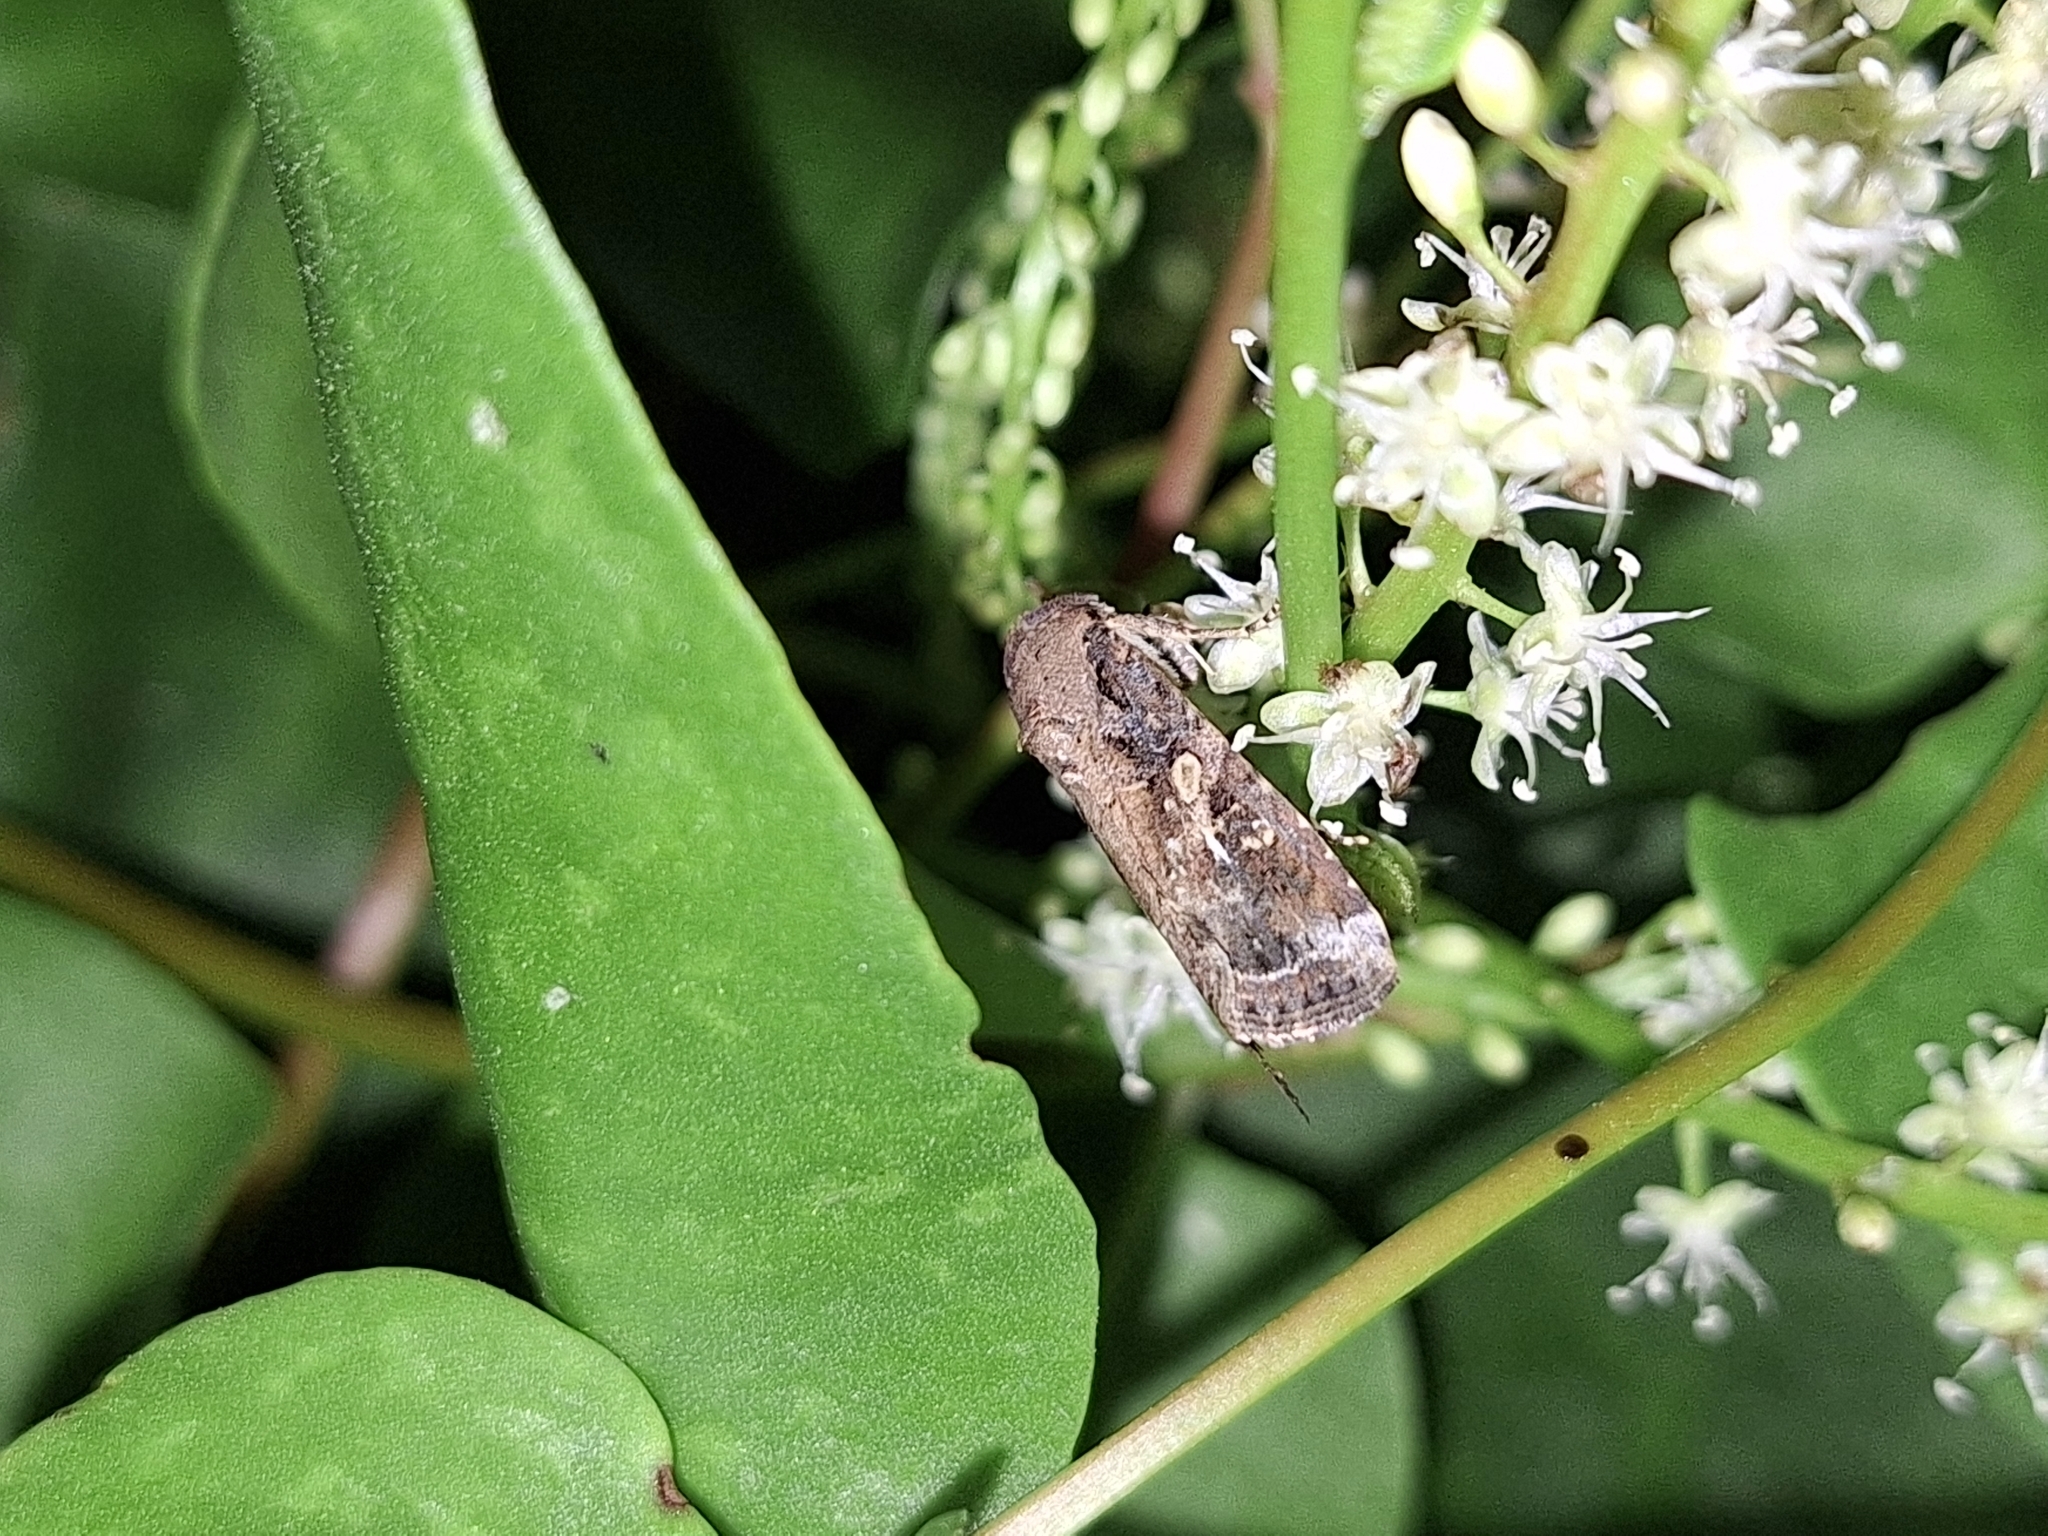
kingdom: Animalia
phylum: Arthropoda
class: Insecta
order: Lepidoptera
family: Noctuidae
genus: Spodoptera
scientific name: Spodoptera frugiperda
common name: Fall armyworm
